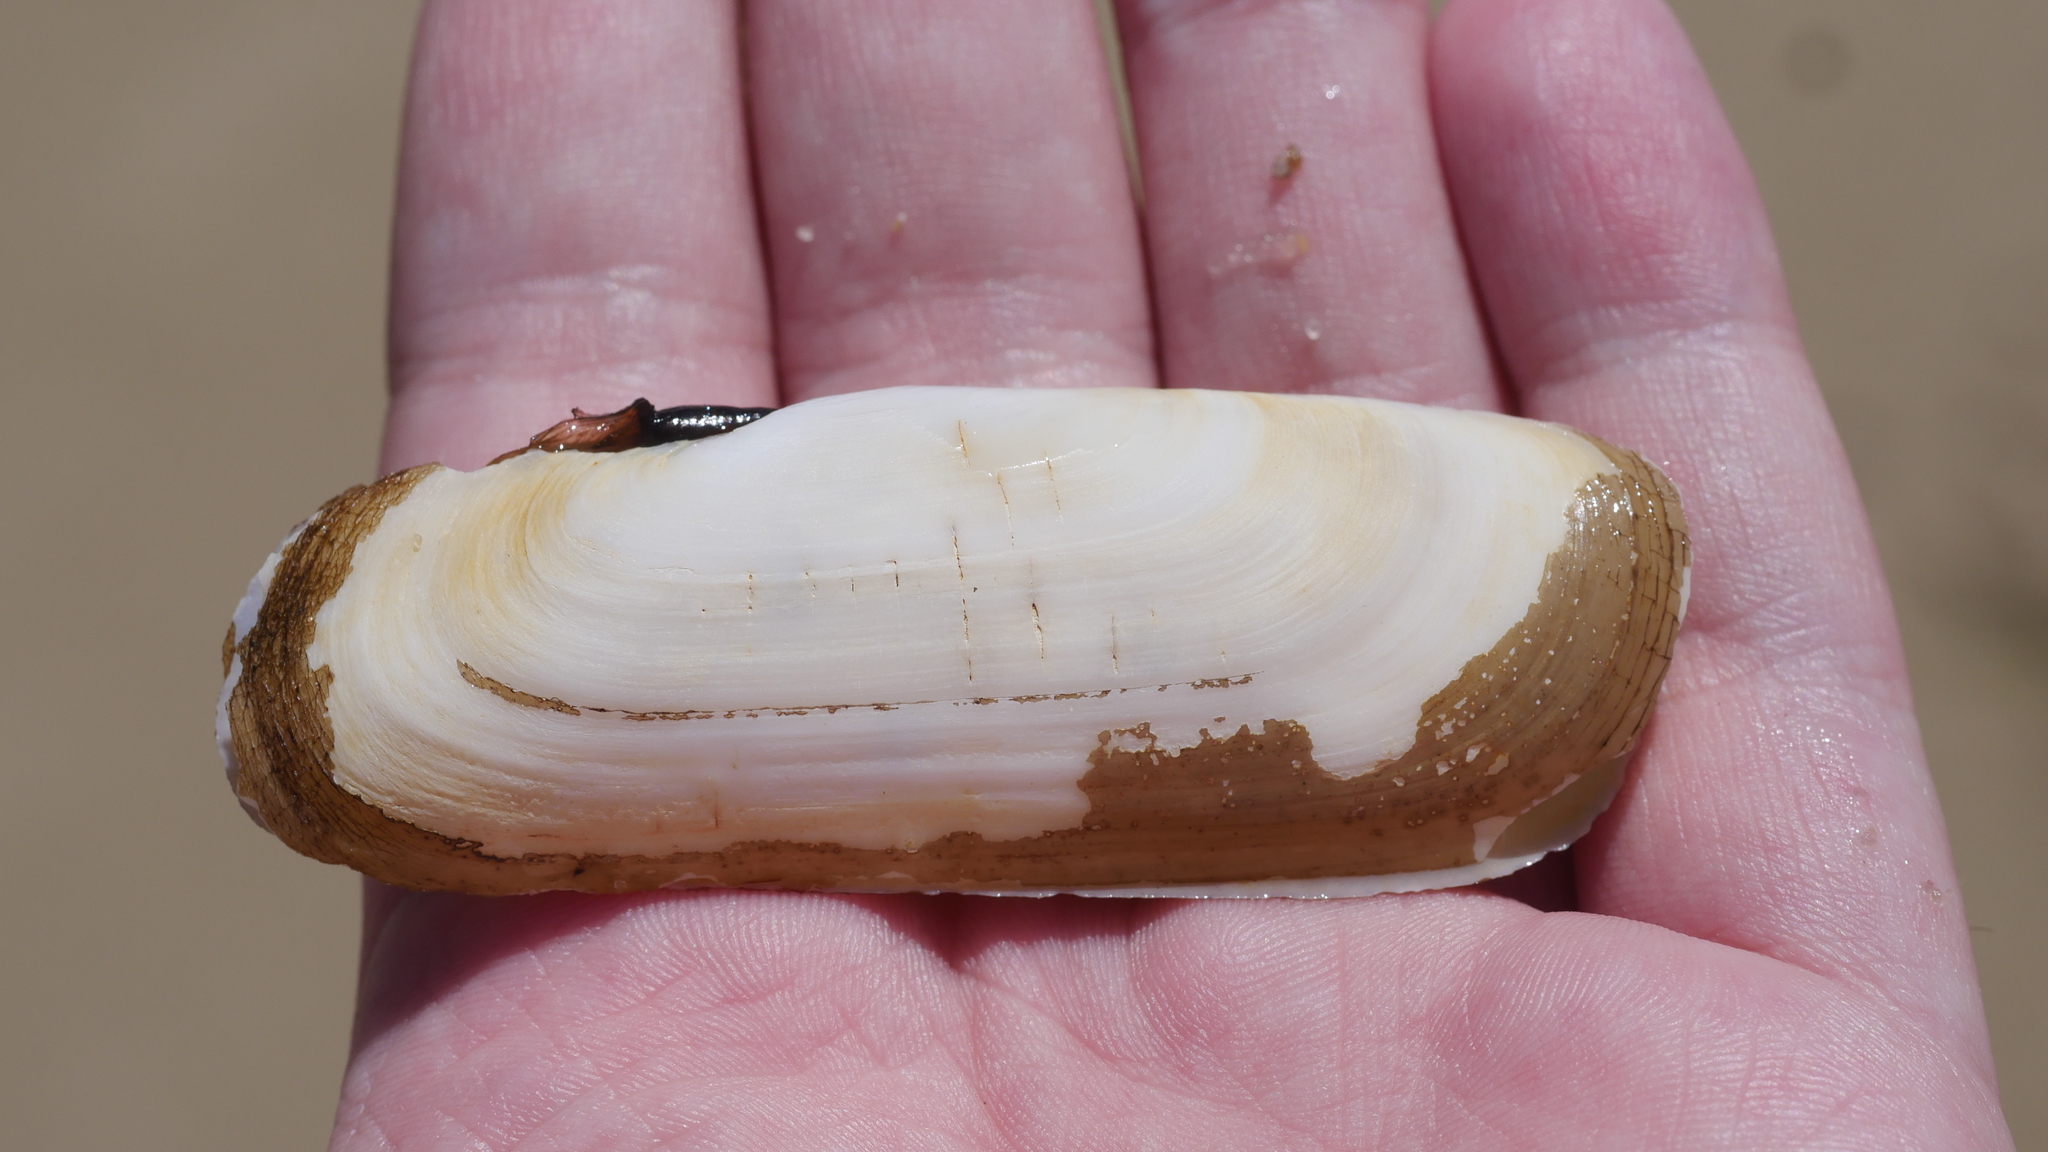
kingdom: Animalia
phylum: Mollusca
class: Bivalvia
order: Cardiida
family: Solecurtidae
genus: Tagelus
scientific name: Tagelus plebeius
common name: Stout tagelus
